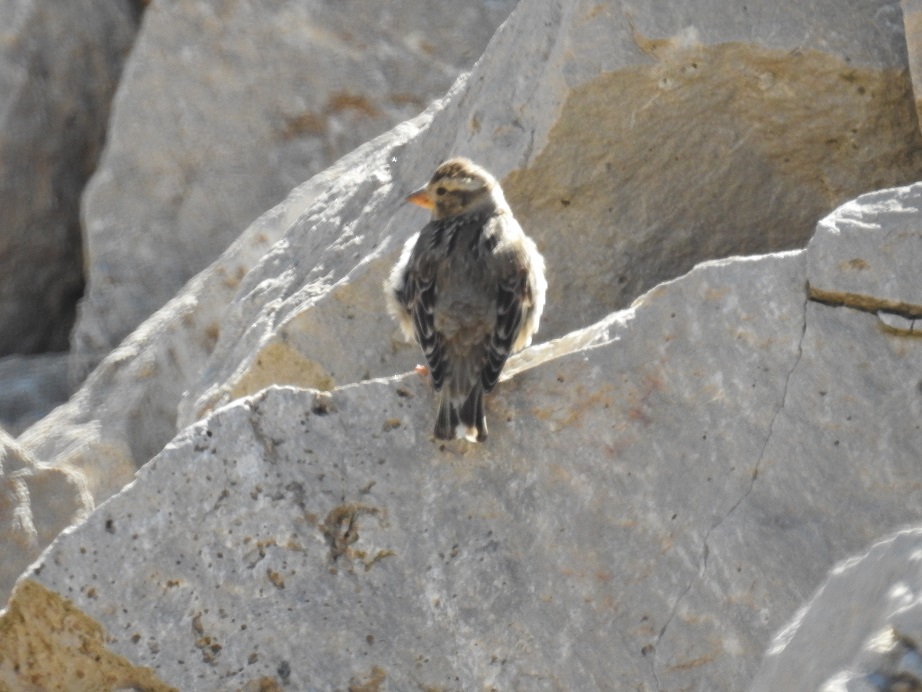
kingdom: Animalia
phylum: Chordata
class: Aves
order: Passeriformes
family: Passeridae
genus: Petronia
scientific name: Petronia petronia
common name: Rock sparrow
